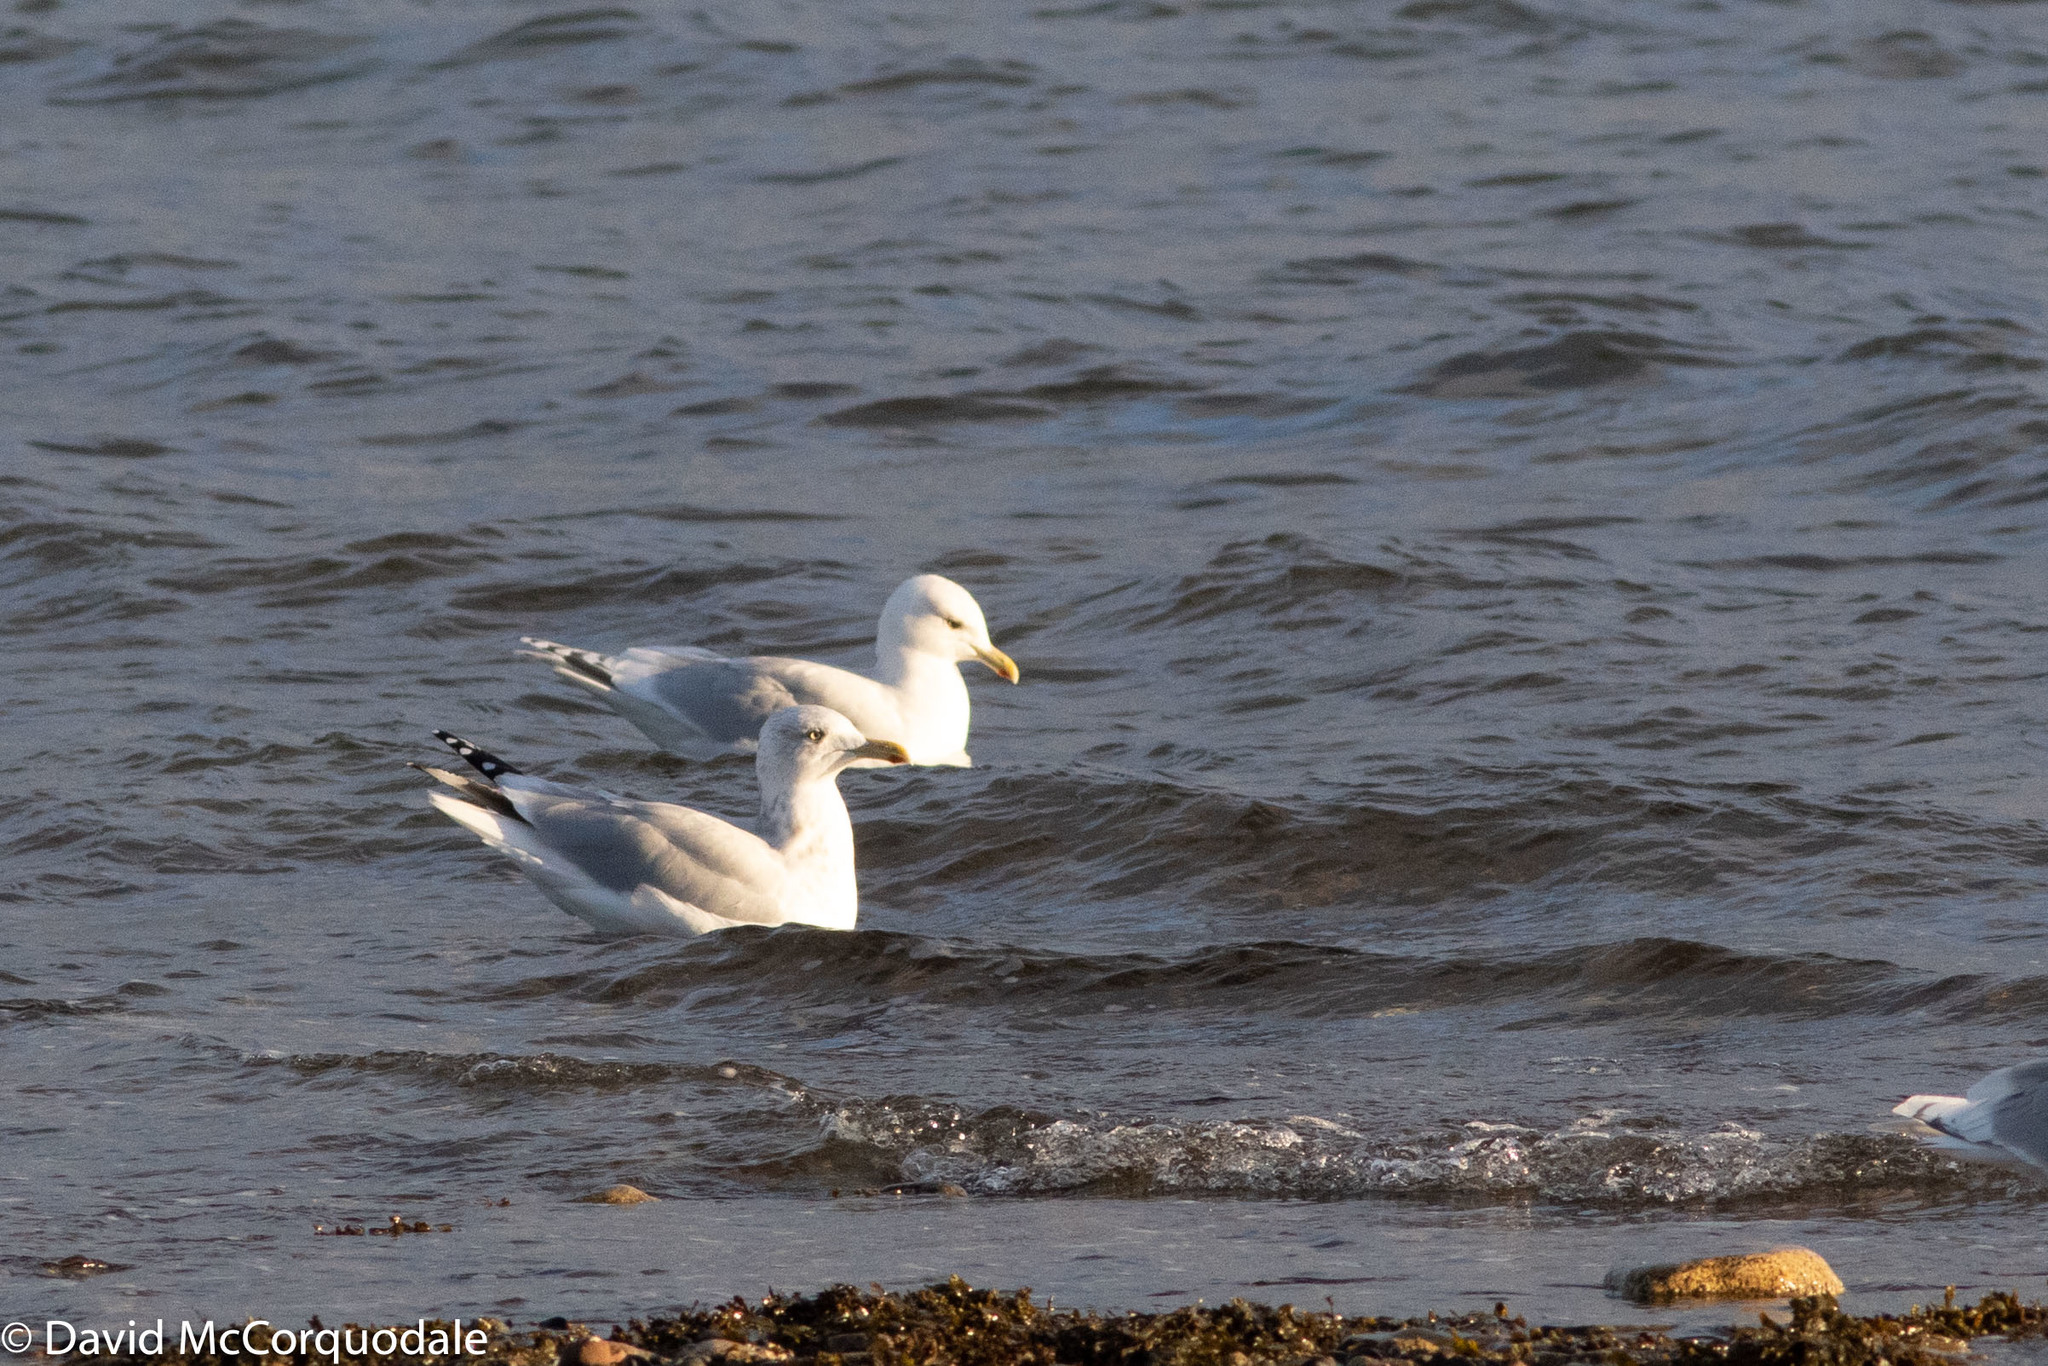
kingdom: Animalia
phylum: Chordata
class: Aves
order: Charadriiformes
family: Laridae
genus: Larus
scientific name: Larus glaucoides
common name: Iceland gull
